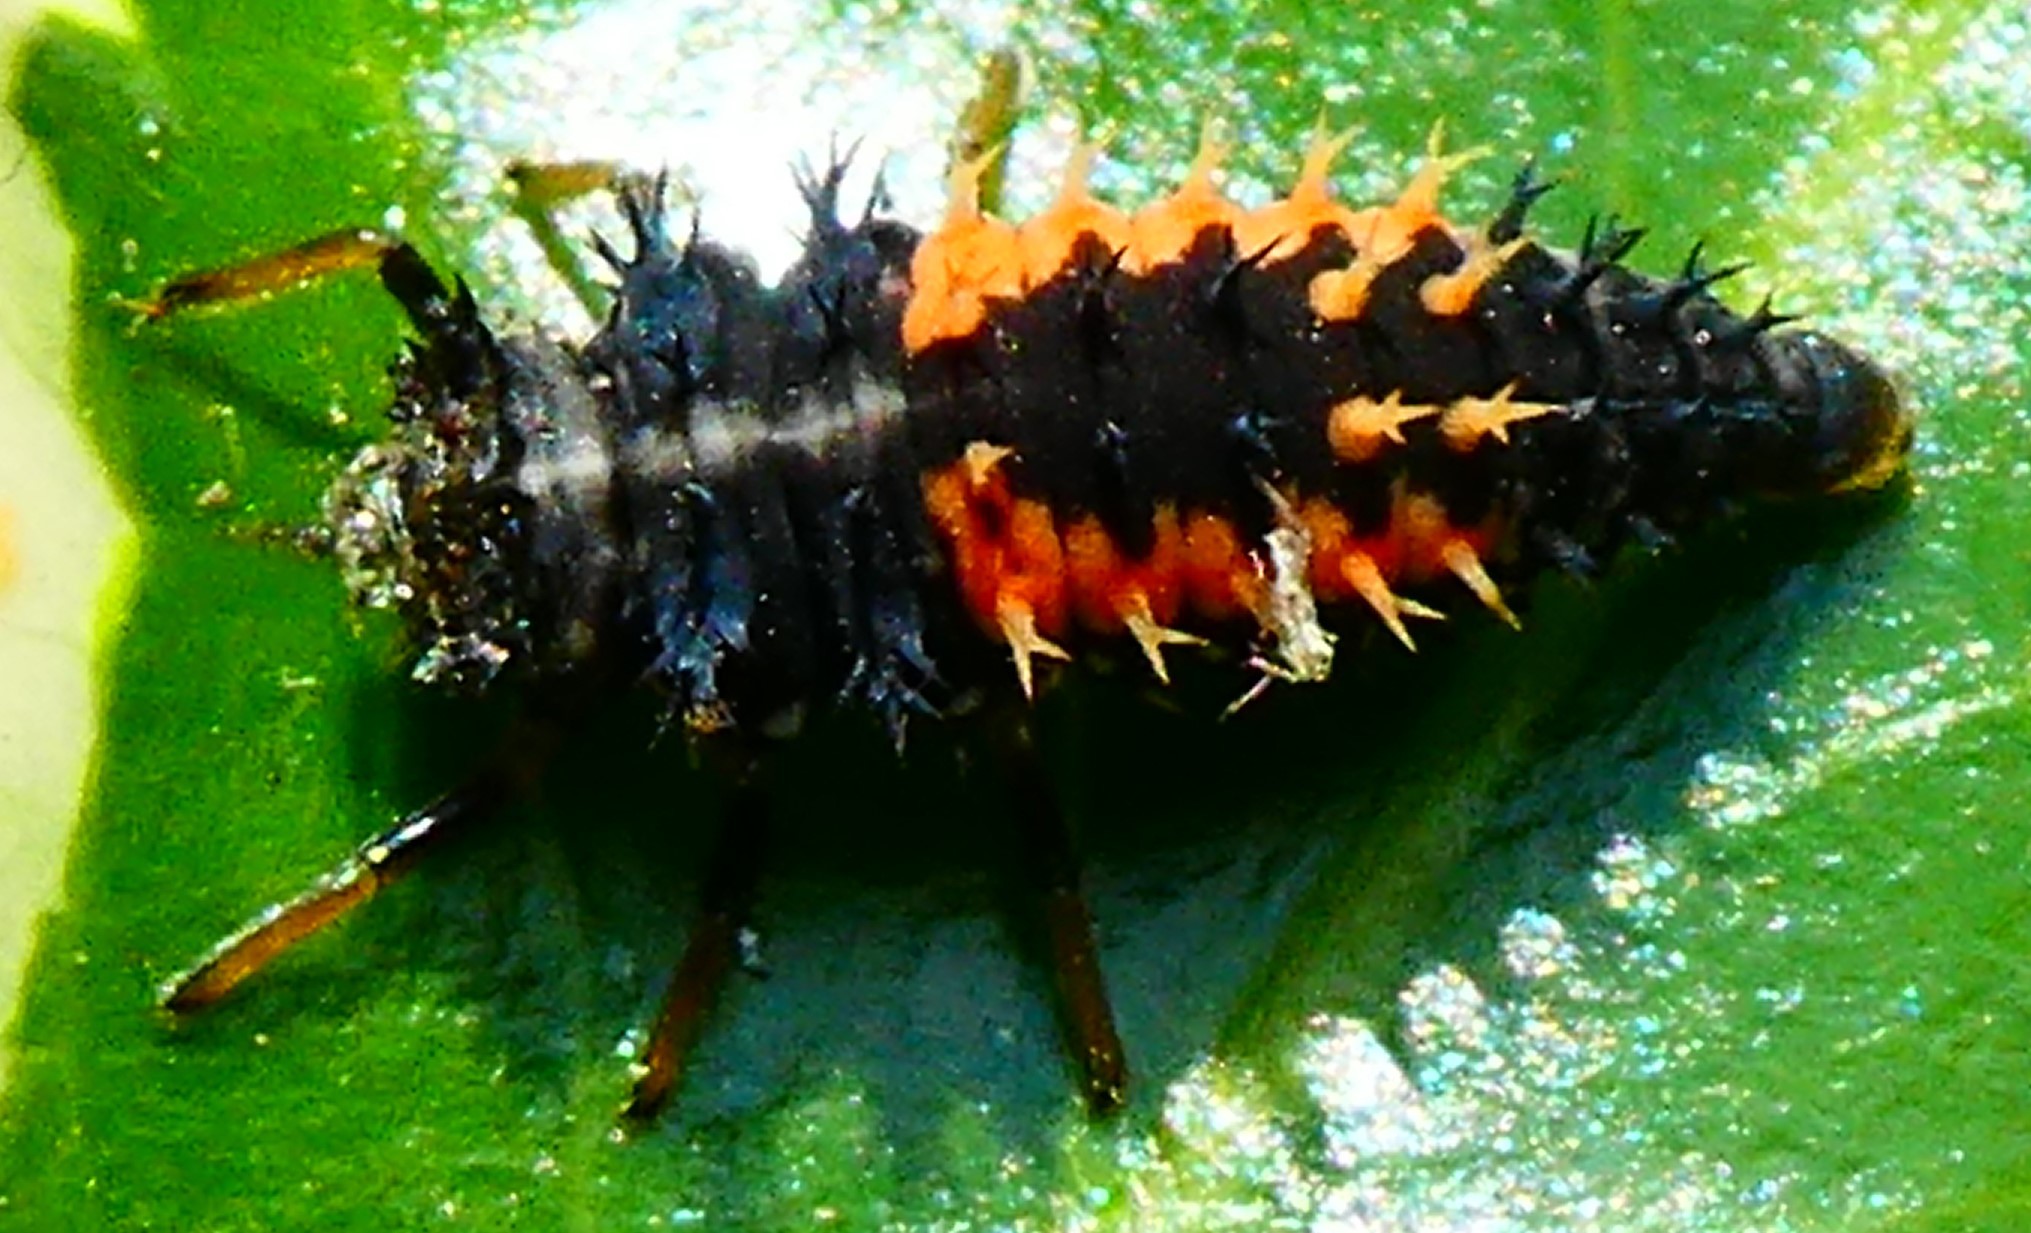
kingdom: Animalia
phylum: Arthropoda
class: Insecta
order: Coleoptera
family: Coccinellidae
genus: Harmonia
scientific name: Harmonia axyridis
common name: Harlequin ladybird
